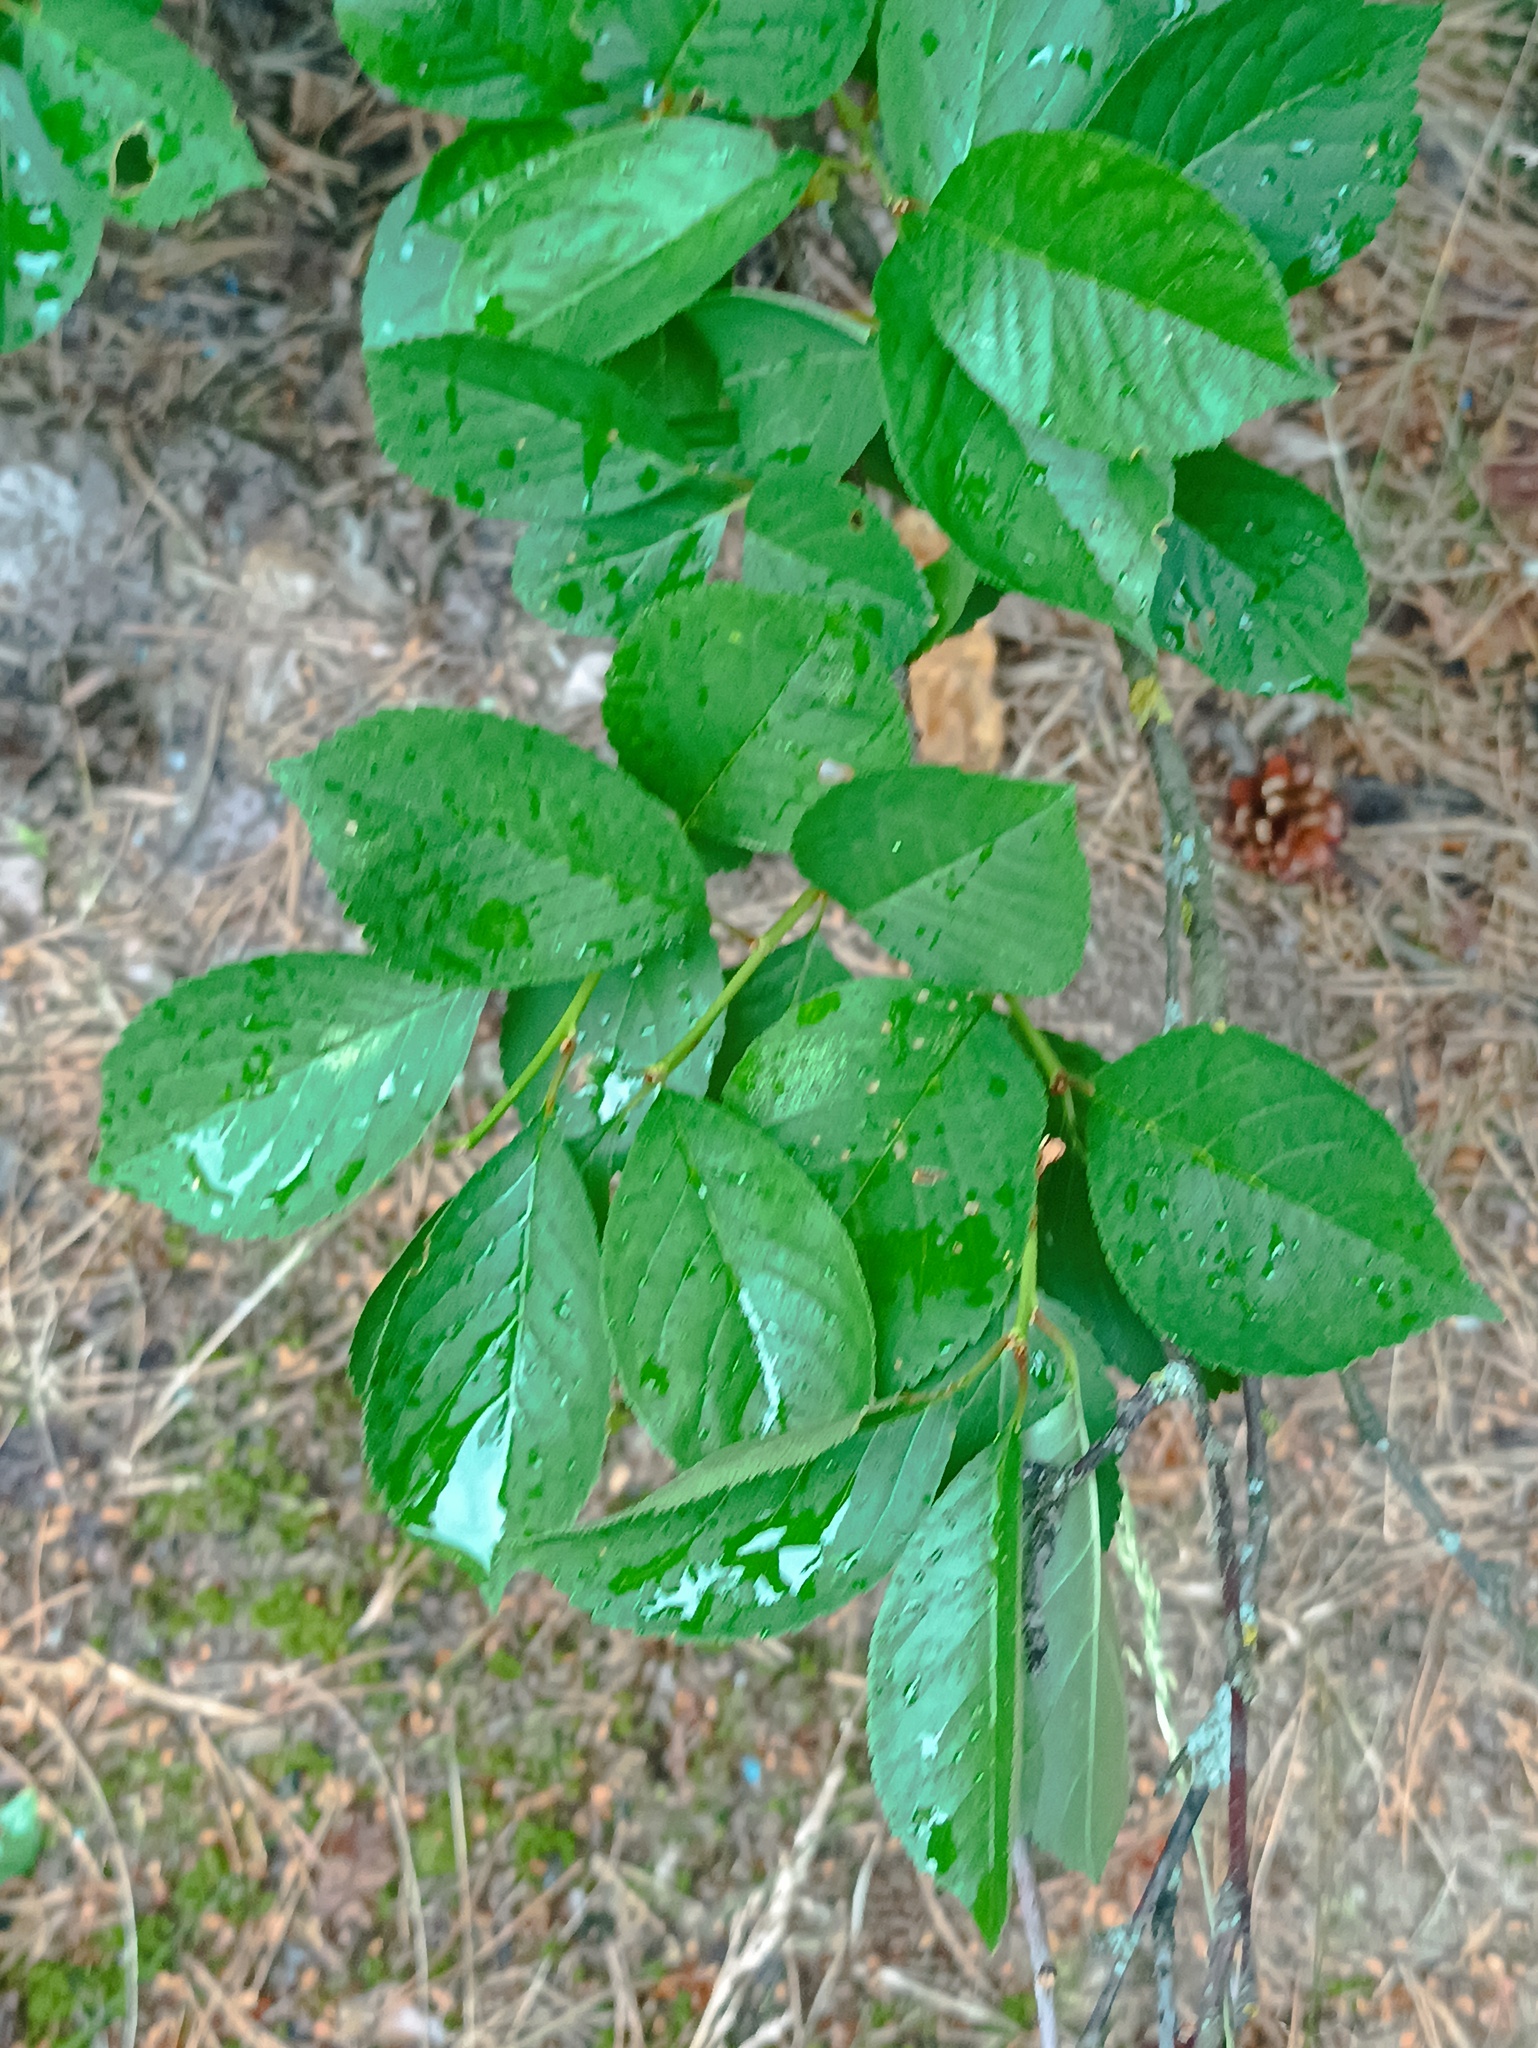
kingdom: Plantae
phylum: Tracheophyta
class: Magnoliopsida
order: Rosales
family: Rosaceae
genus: Prunus
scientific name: Prunus cerasus
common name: Morello cherry
